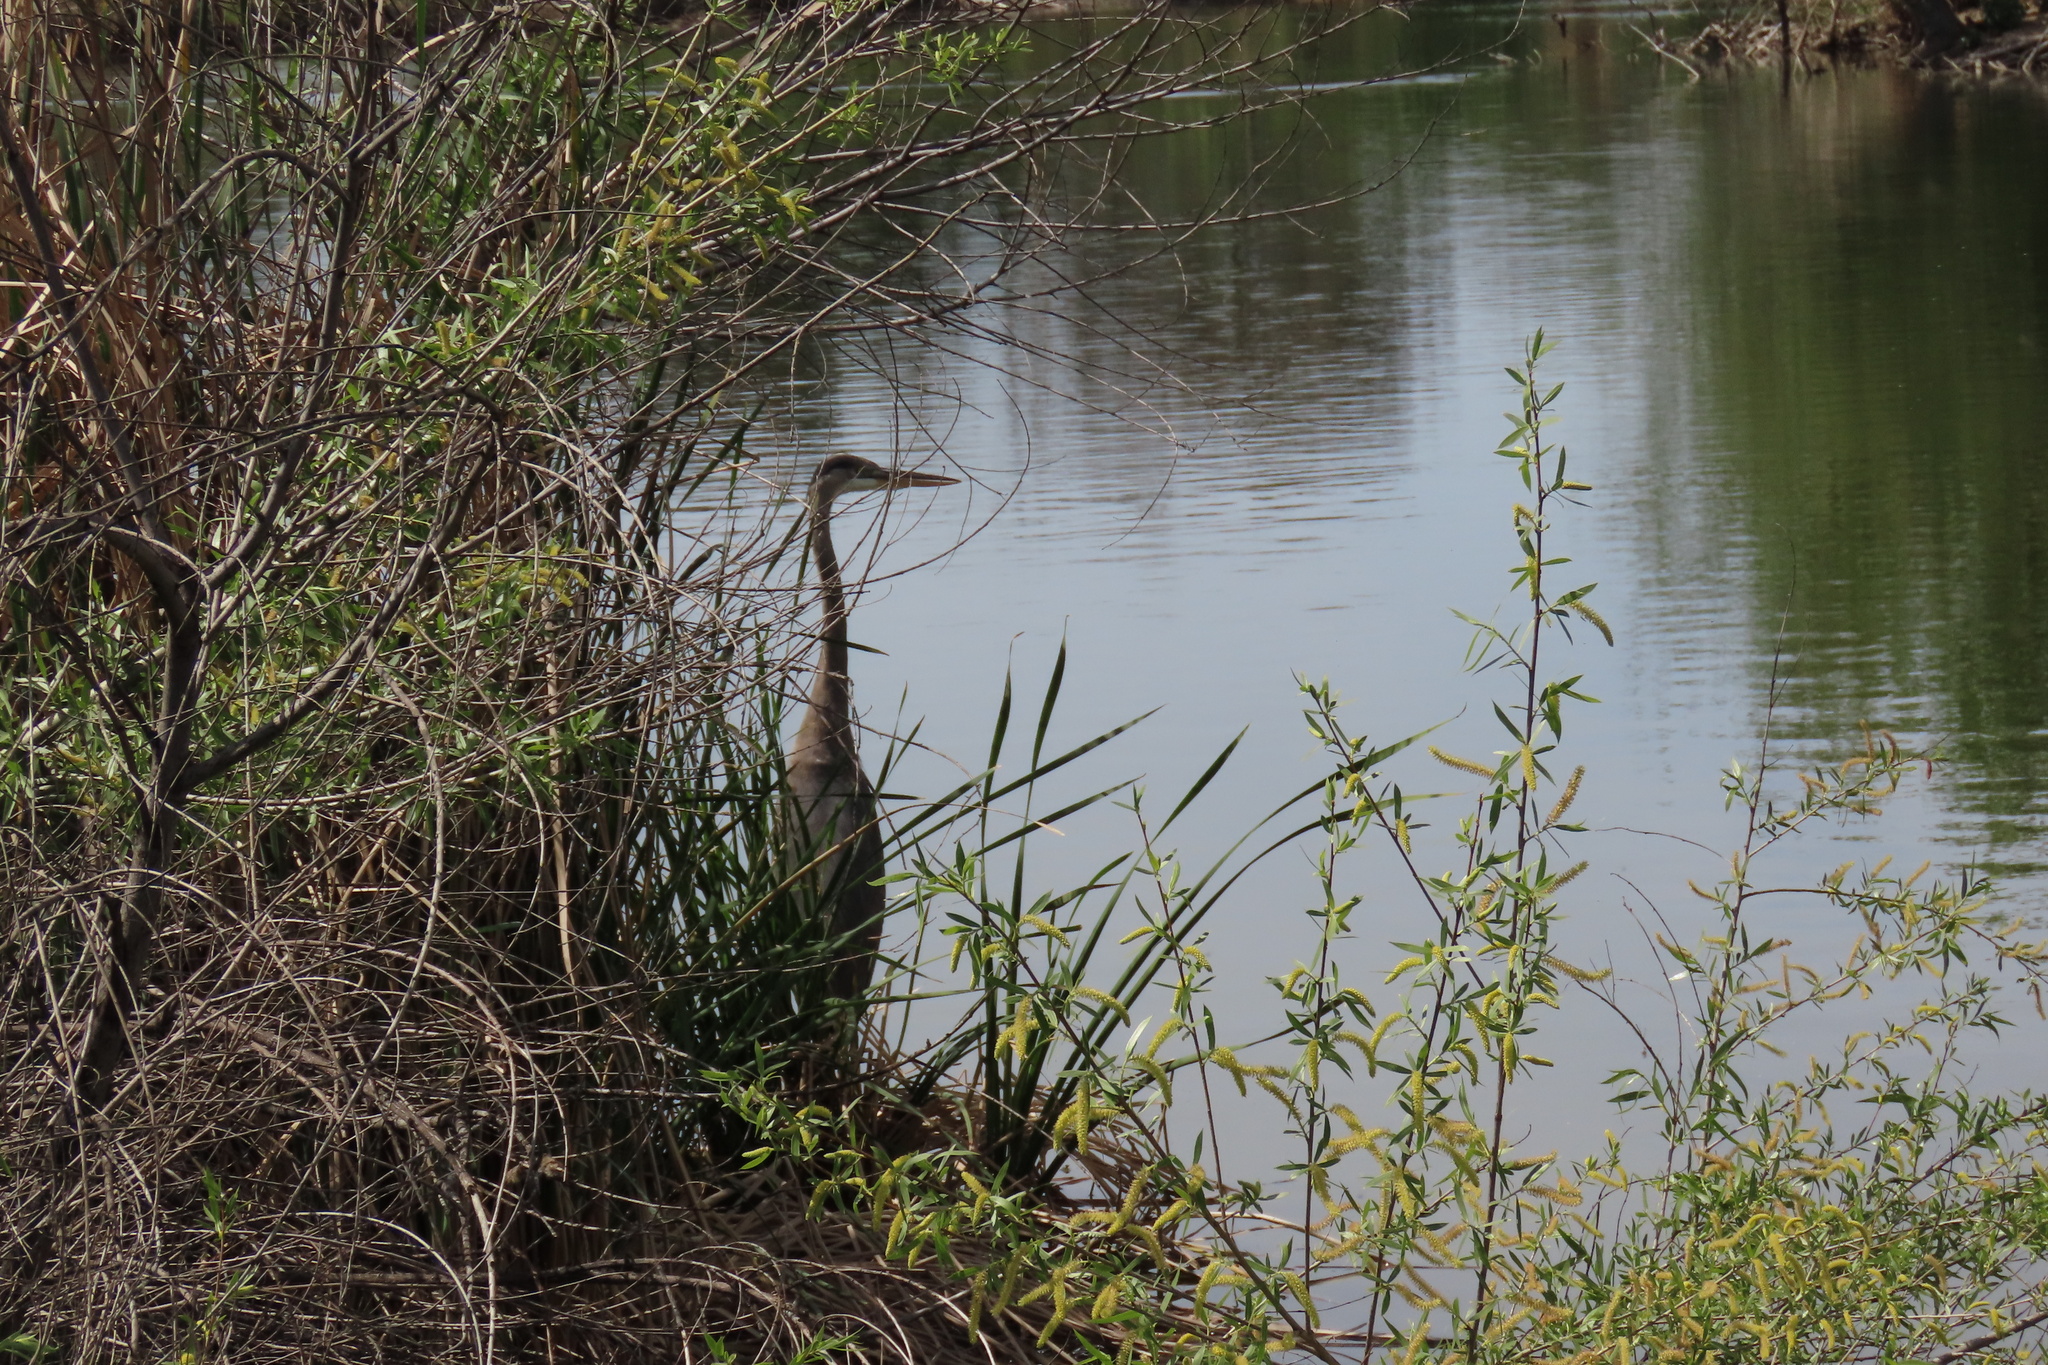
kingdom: Animalia
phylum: Chordata
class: Aves
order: Pelecaniformes
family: Ardeidae
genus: Ardea
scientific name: Ardea herodias
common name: Great blue heron
